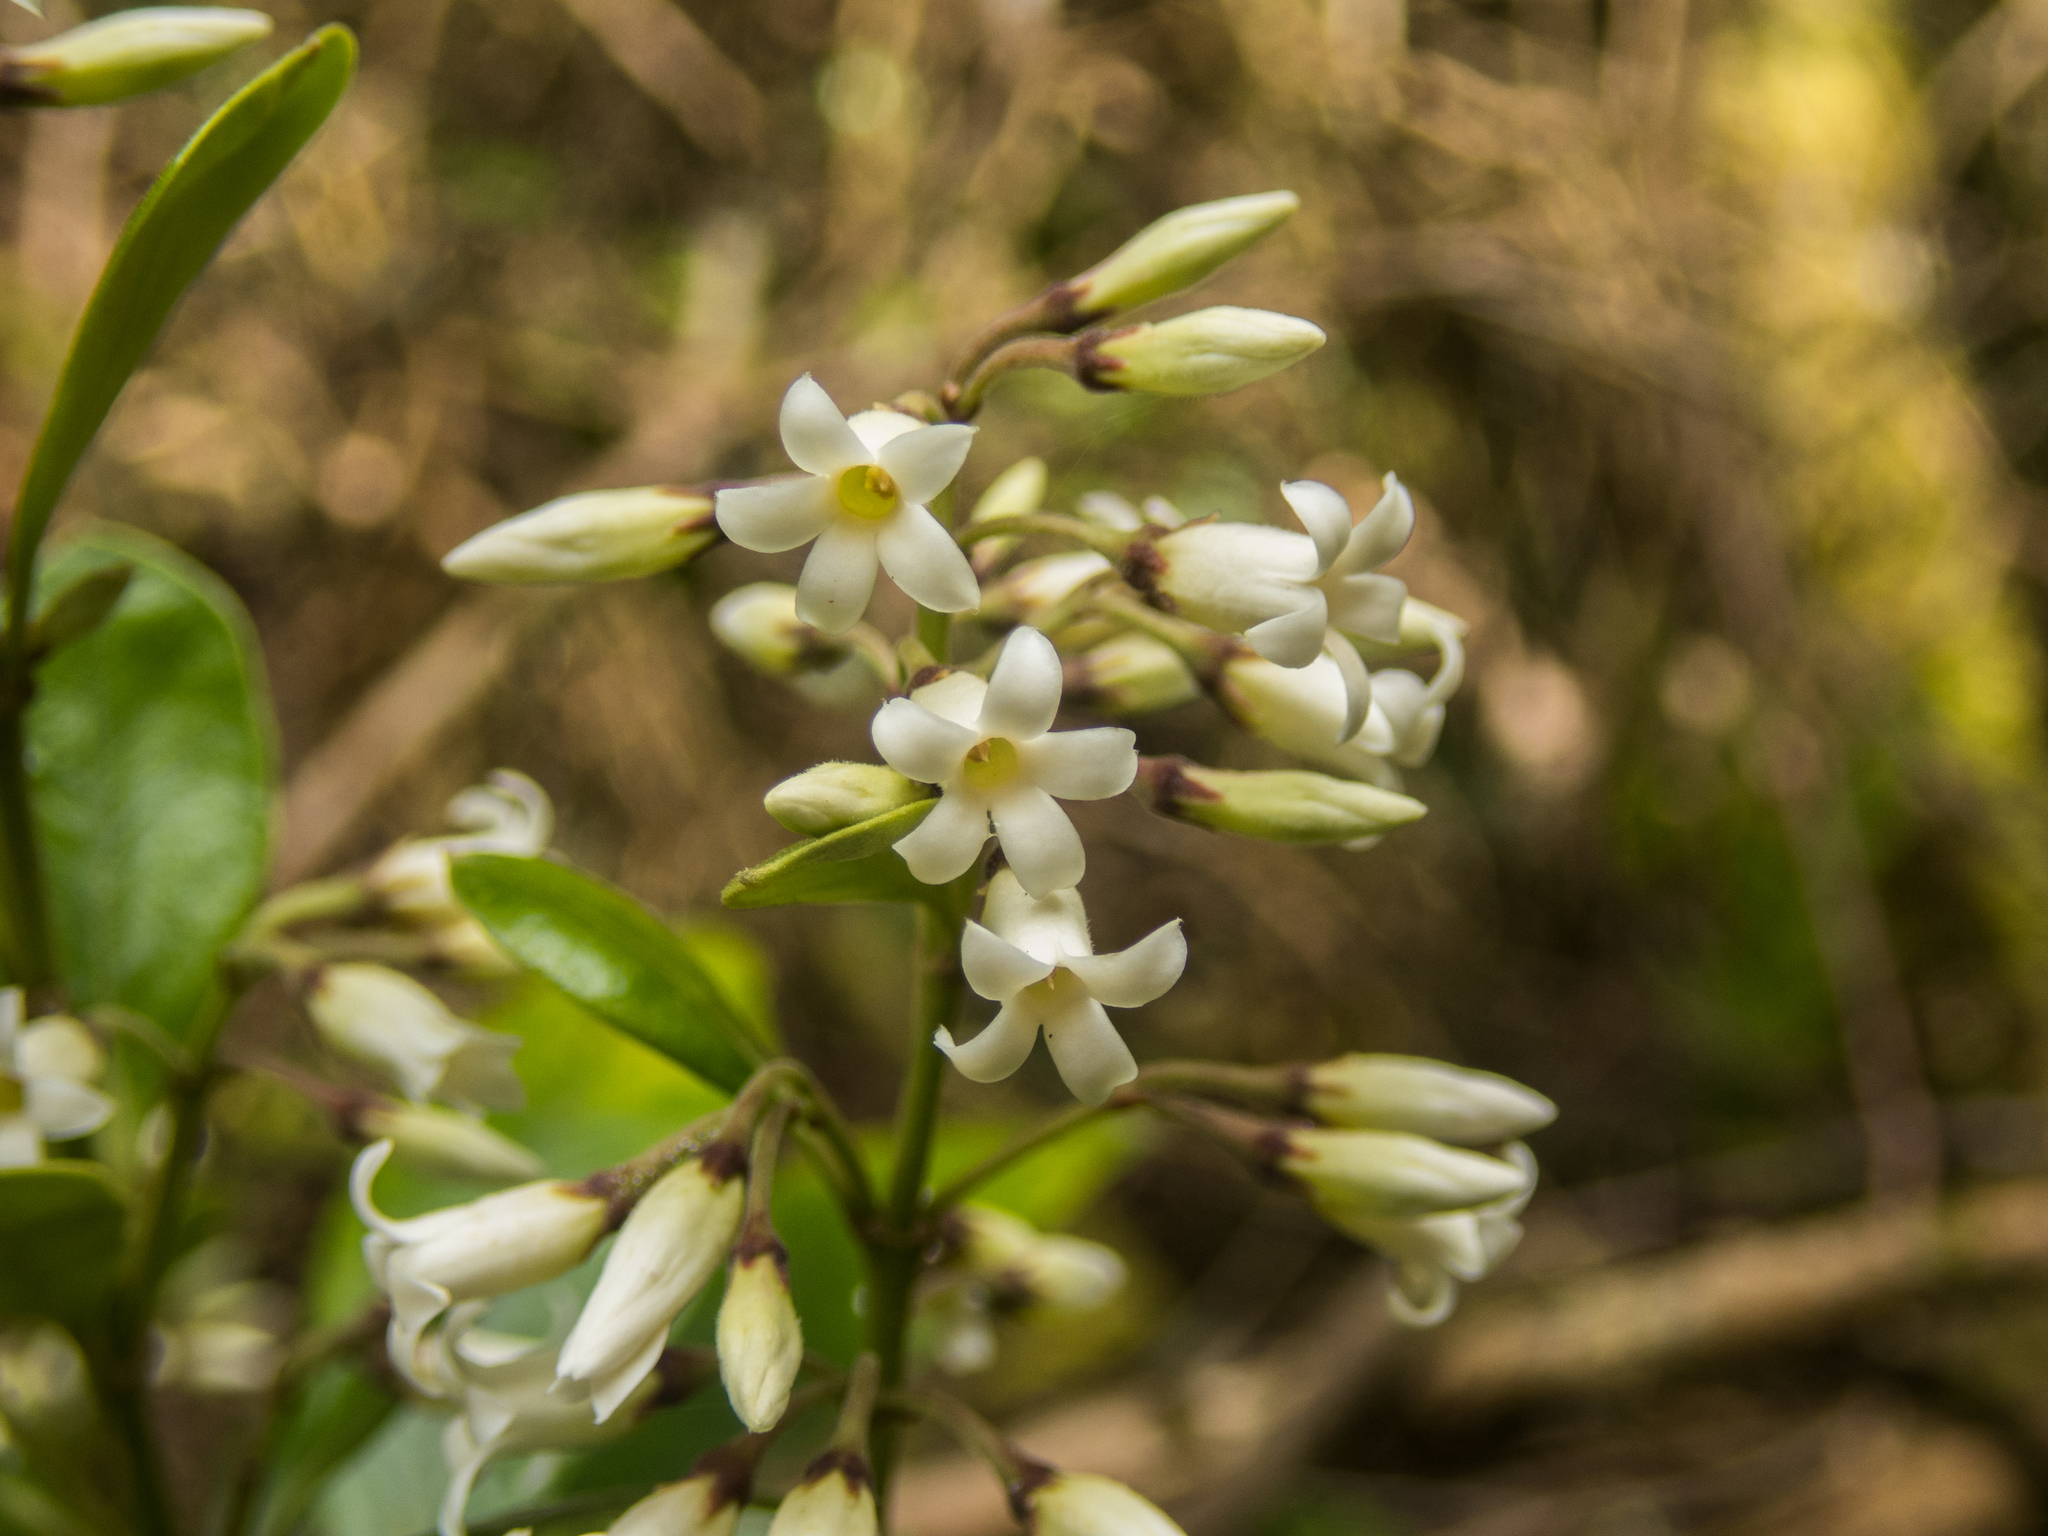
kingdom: Plantae
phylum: Tracheophyta
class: Magnoliopsida
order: Gentianales
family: Apocynaceae
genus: Parsonsia
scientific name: Parsonsia heterophylla
